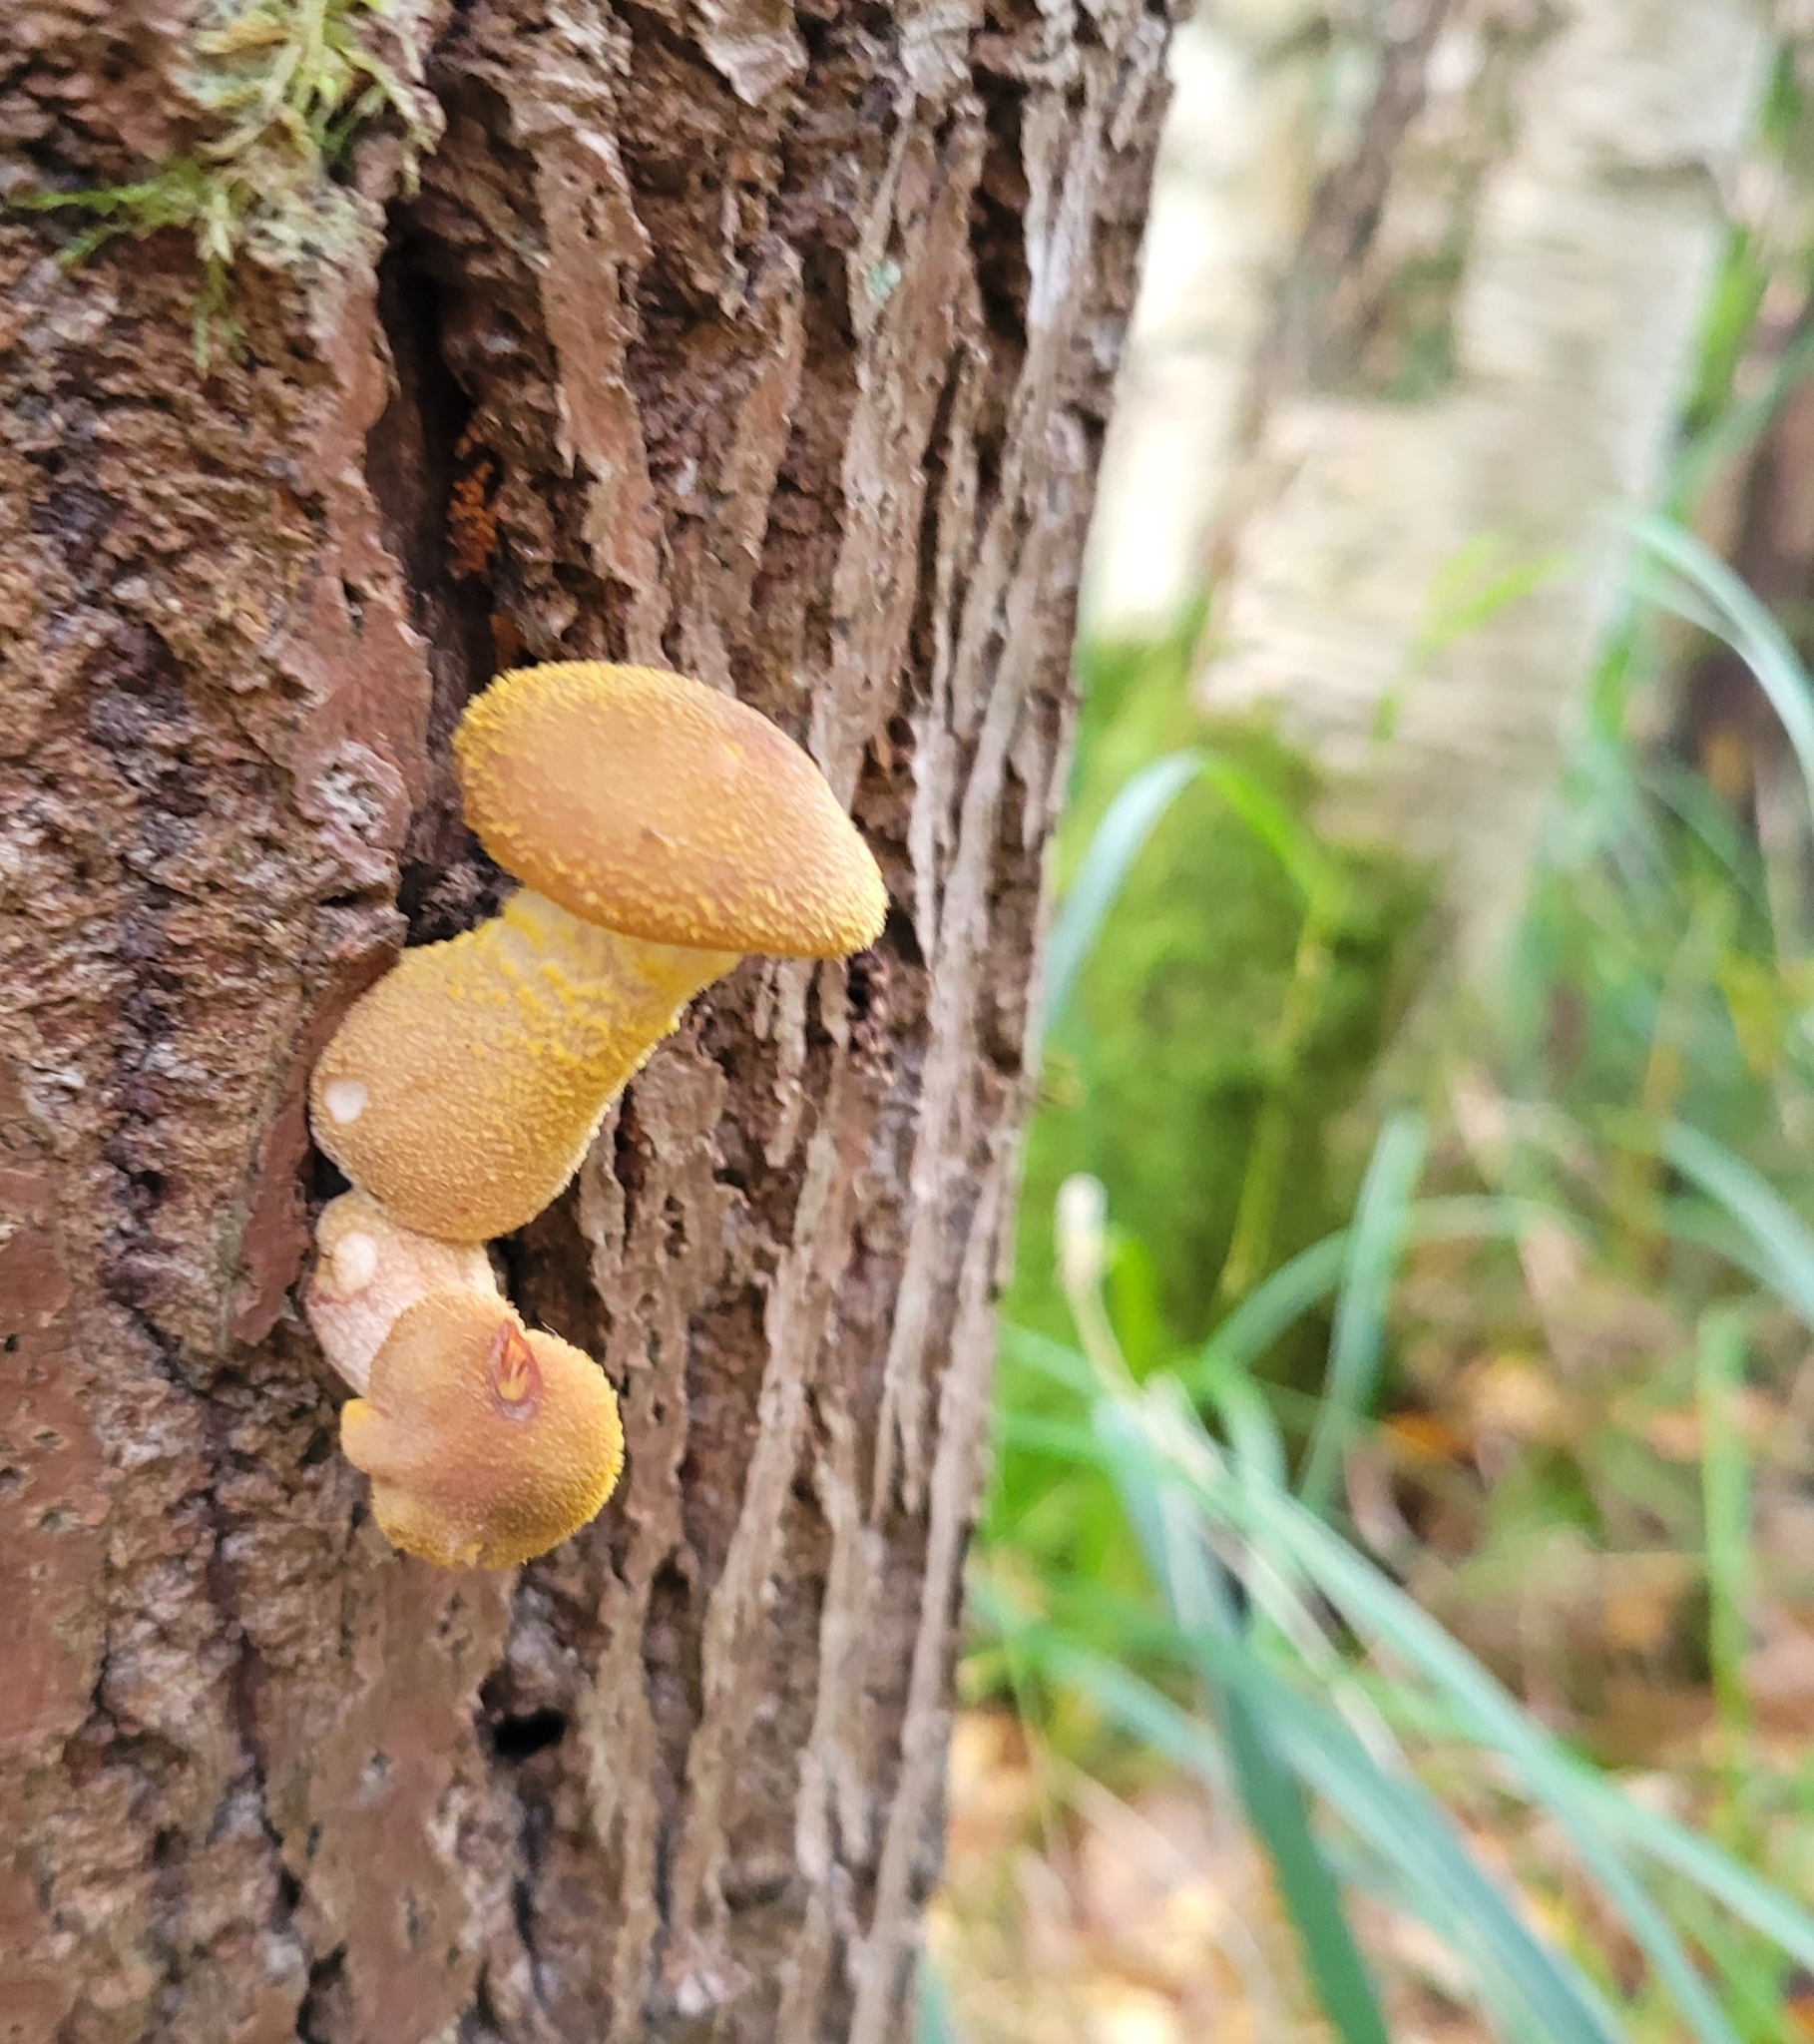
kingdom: Fungi
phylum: Basidiomycota
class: Agaricomycetes
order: Agaricales
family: Physalacriaceae
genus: Armillaria
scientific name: Armillaria gallica
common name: Bulbous honey fungus
